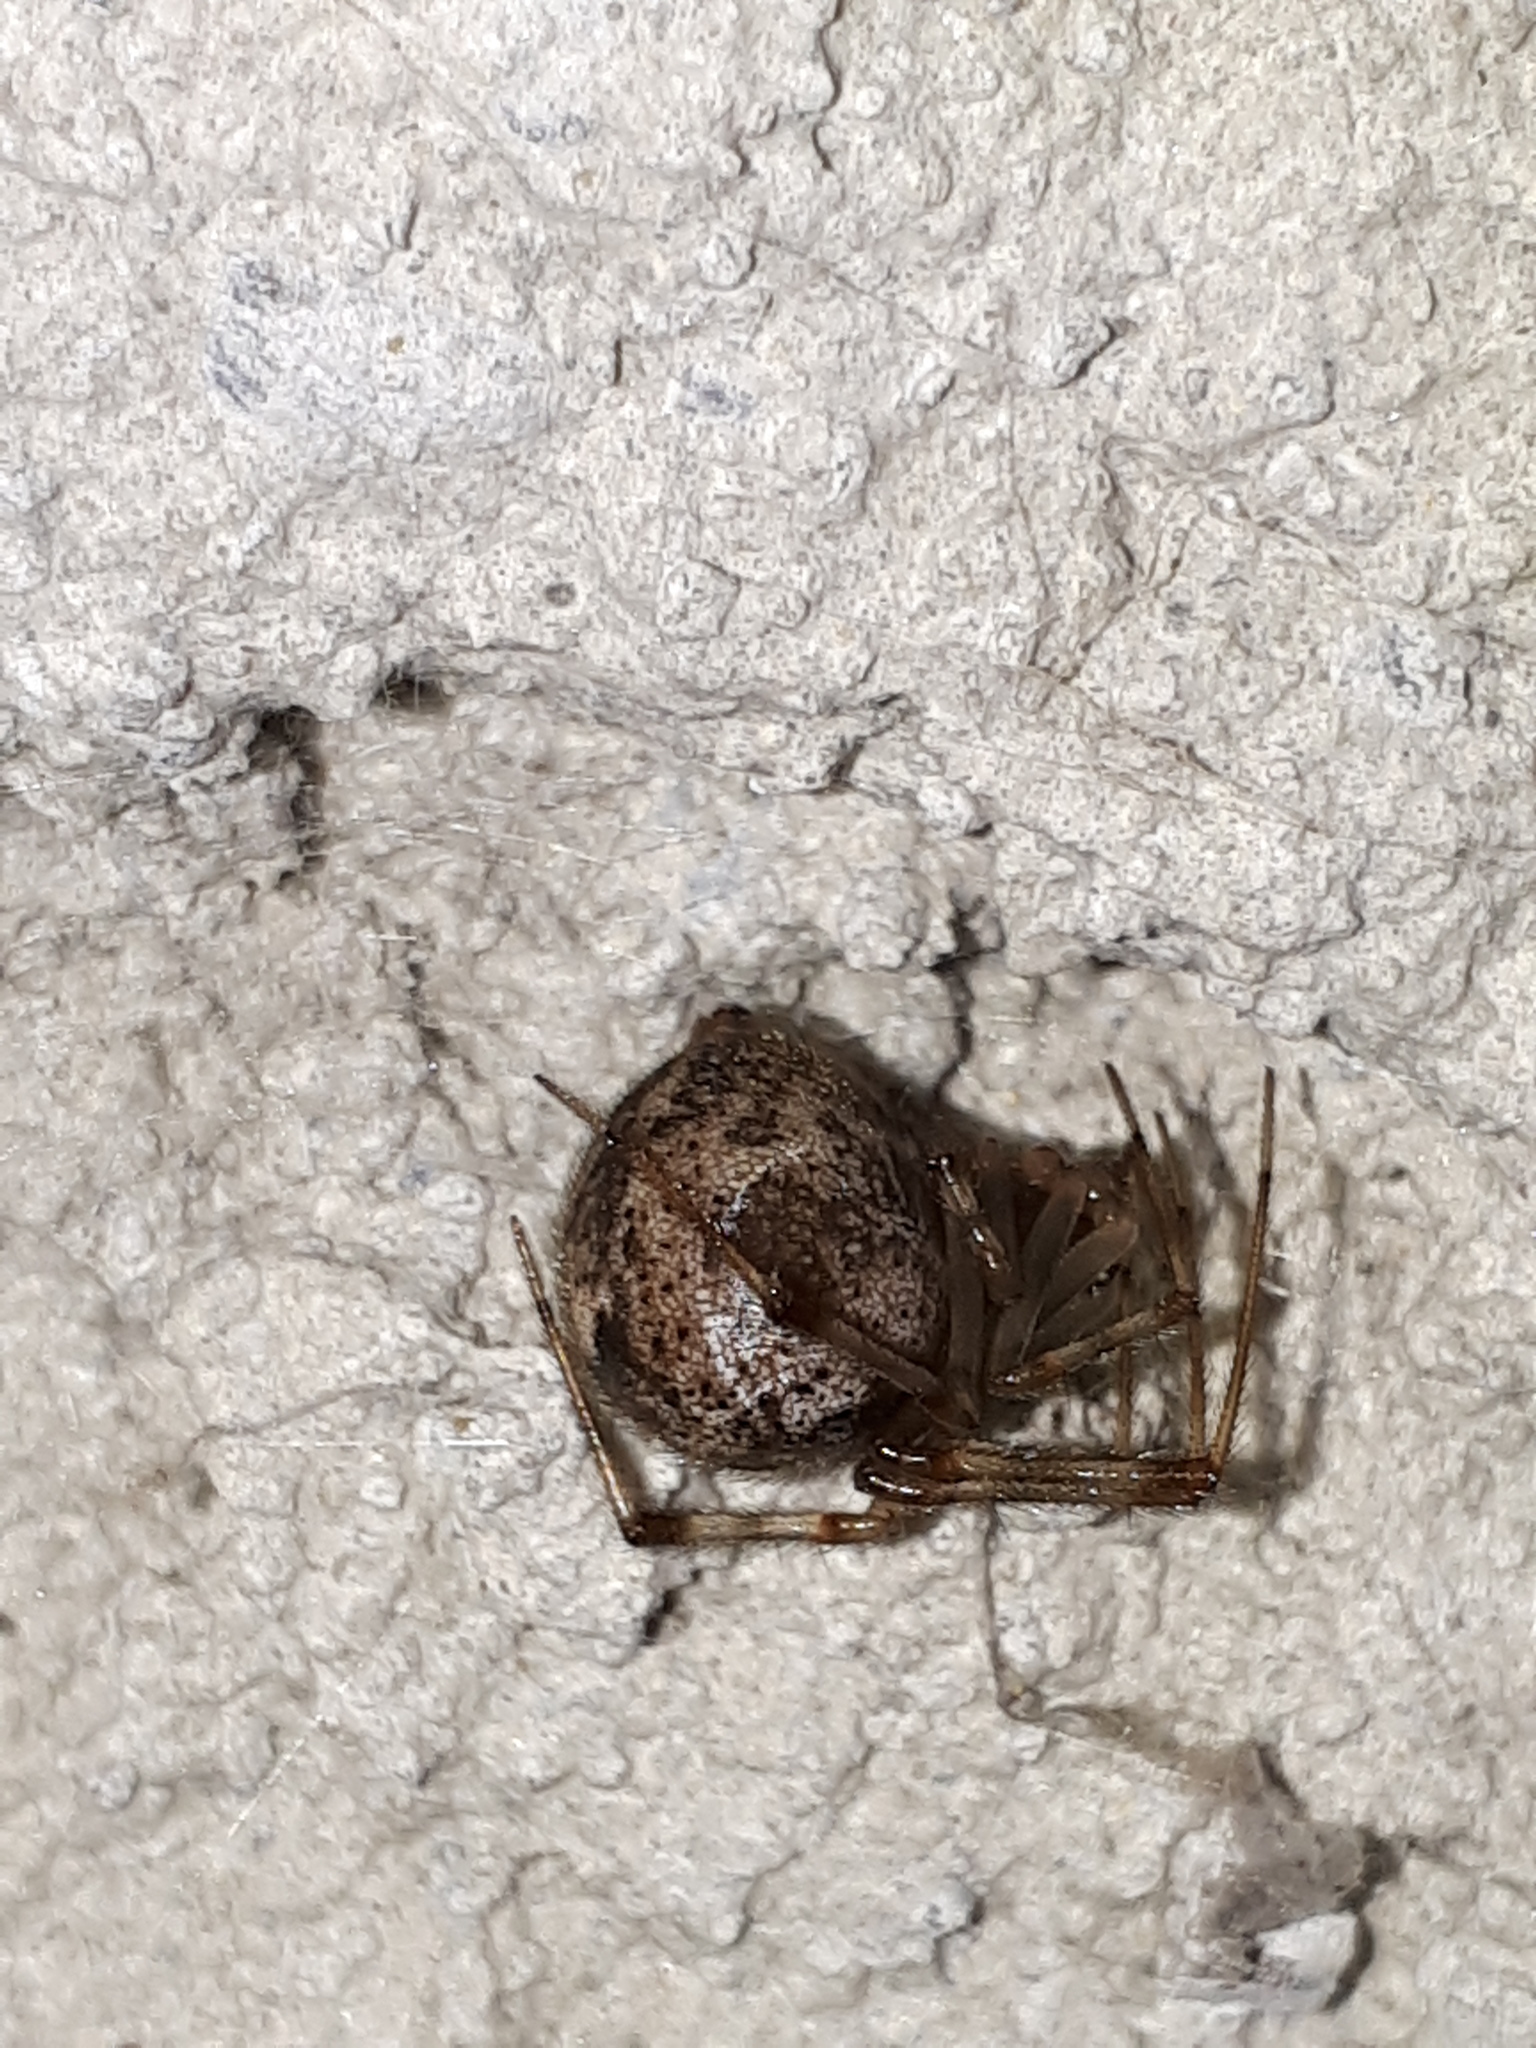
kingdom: Animalia
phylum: Arthropoda
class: Arachnida
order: Araneae
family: Theridiidae
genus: Parasteatoda
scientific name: Parasteatoda tepidariorum
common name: Common house spider
